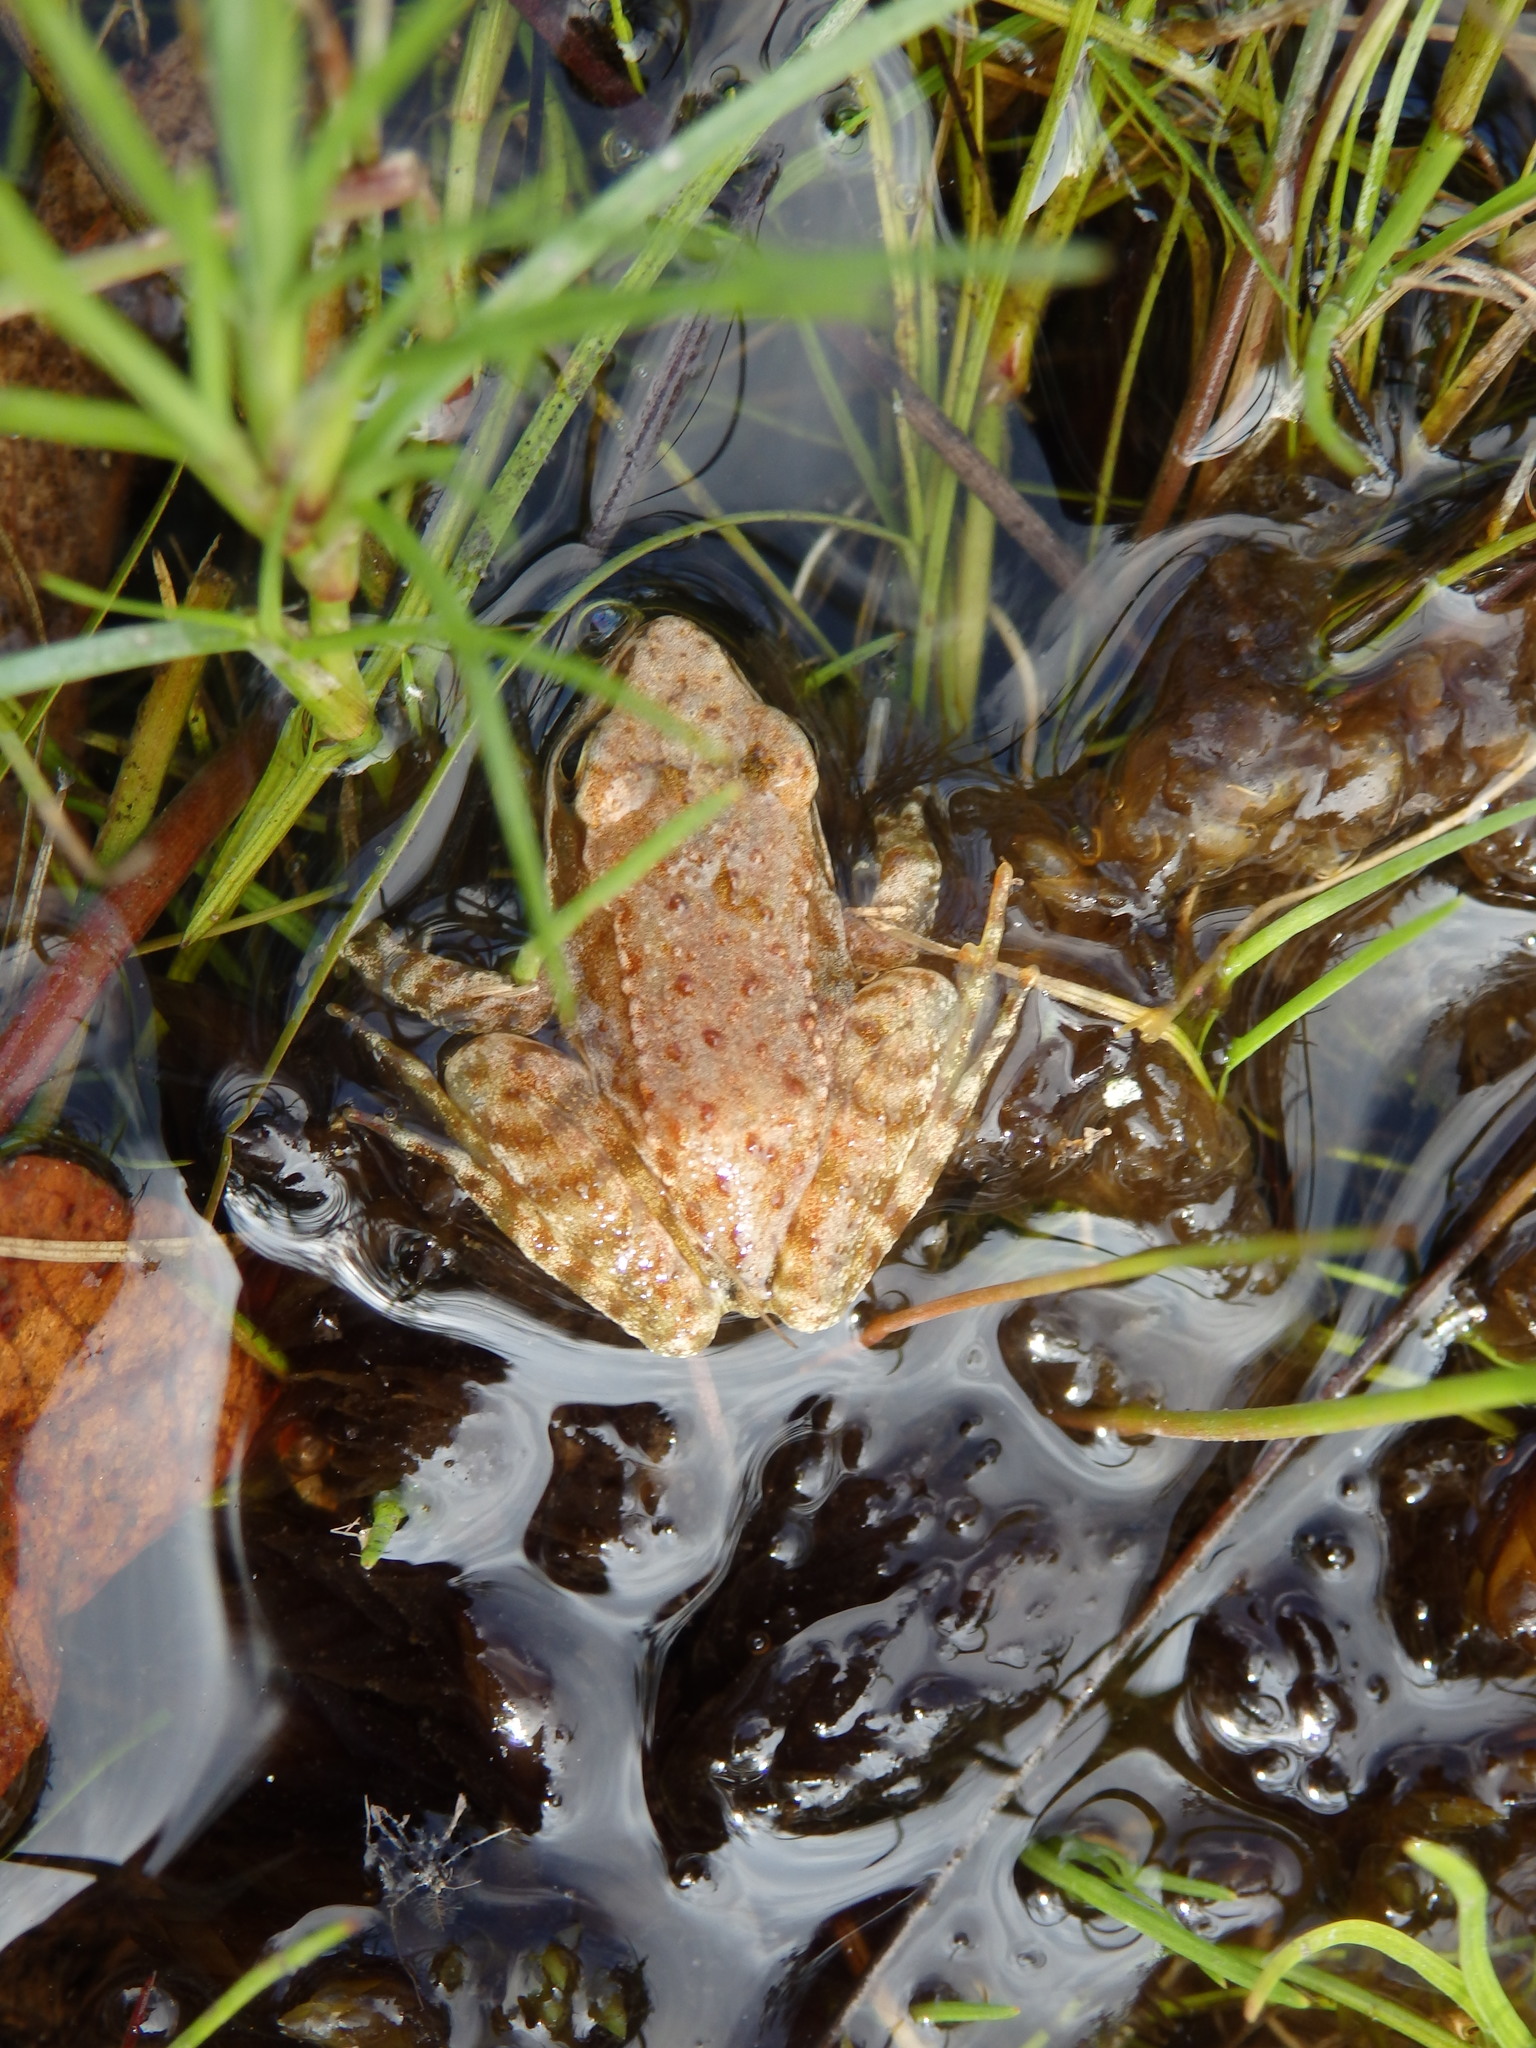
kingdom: Animalia
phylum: Chordata
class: Amphibia
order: Anura
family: Ranidae
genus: Rana
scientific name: Rana iberica
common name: Iberian frog
